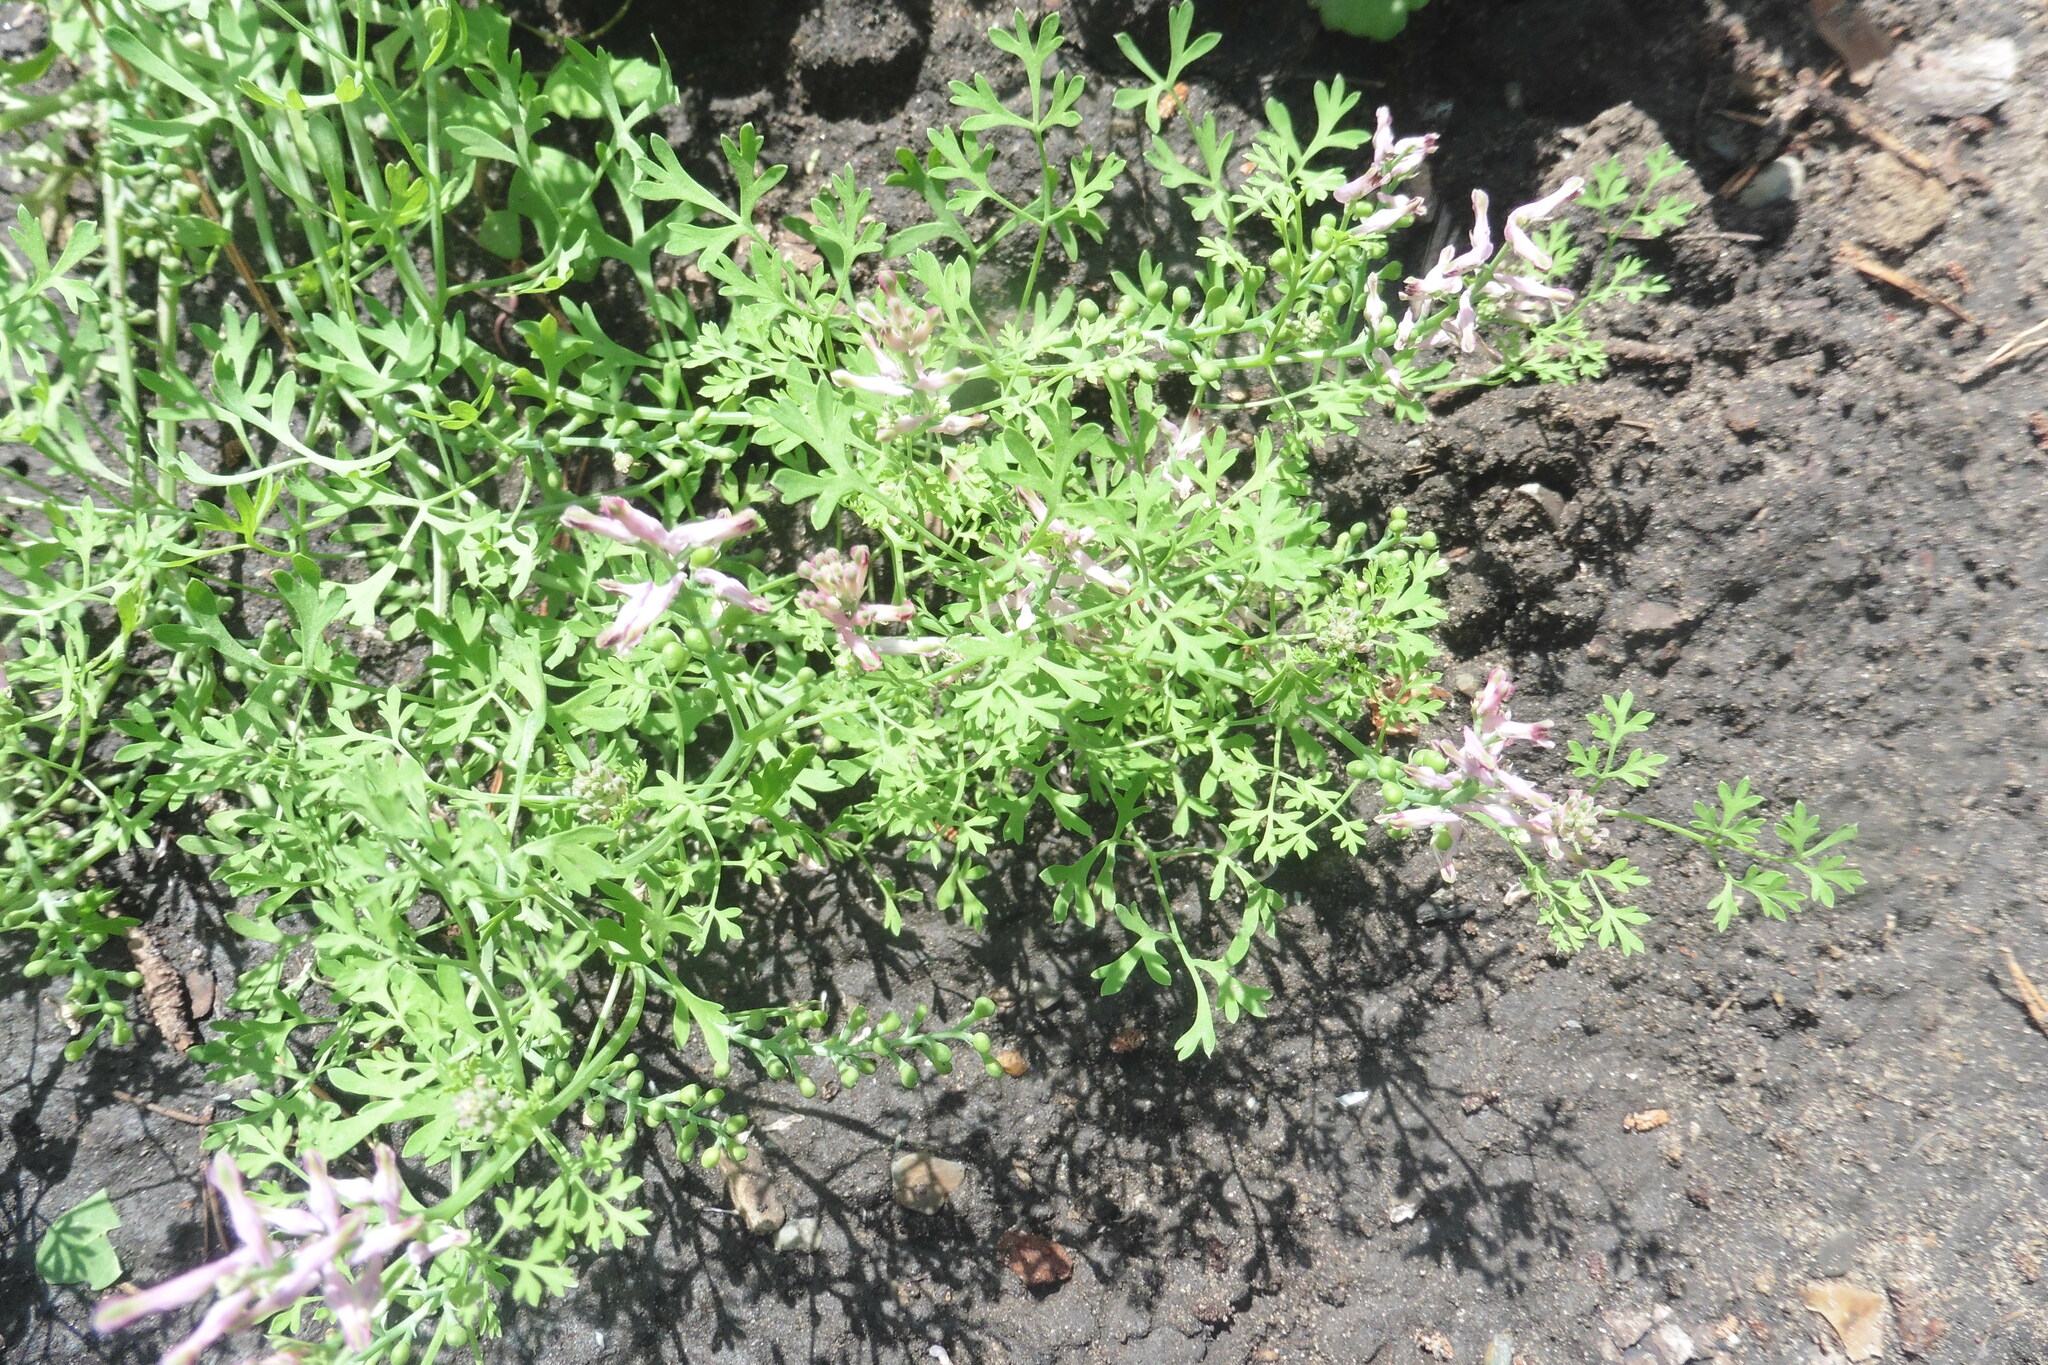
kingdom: Plantae
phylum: Tracheophyta
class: Magnoliopsida
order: Ranunculales
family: Papaveraceae
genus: Fumaria
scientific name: Fumaria officinalis
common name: Common fumitory
